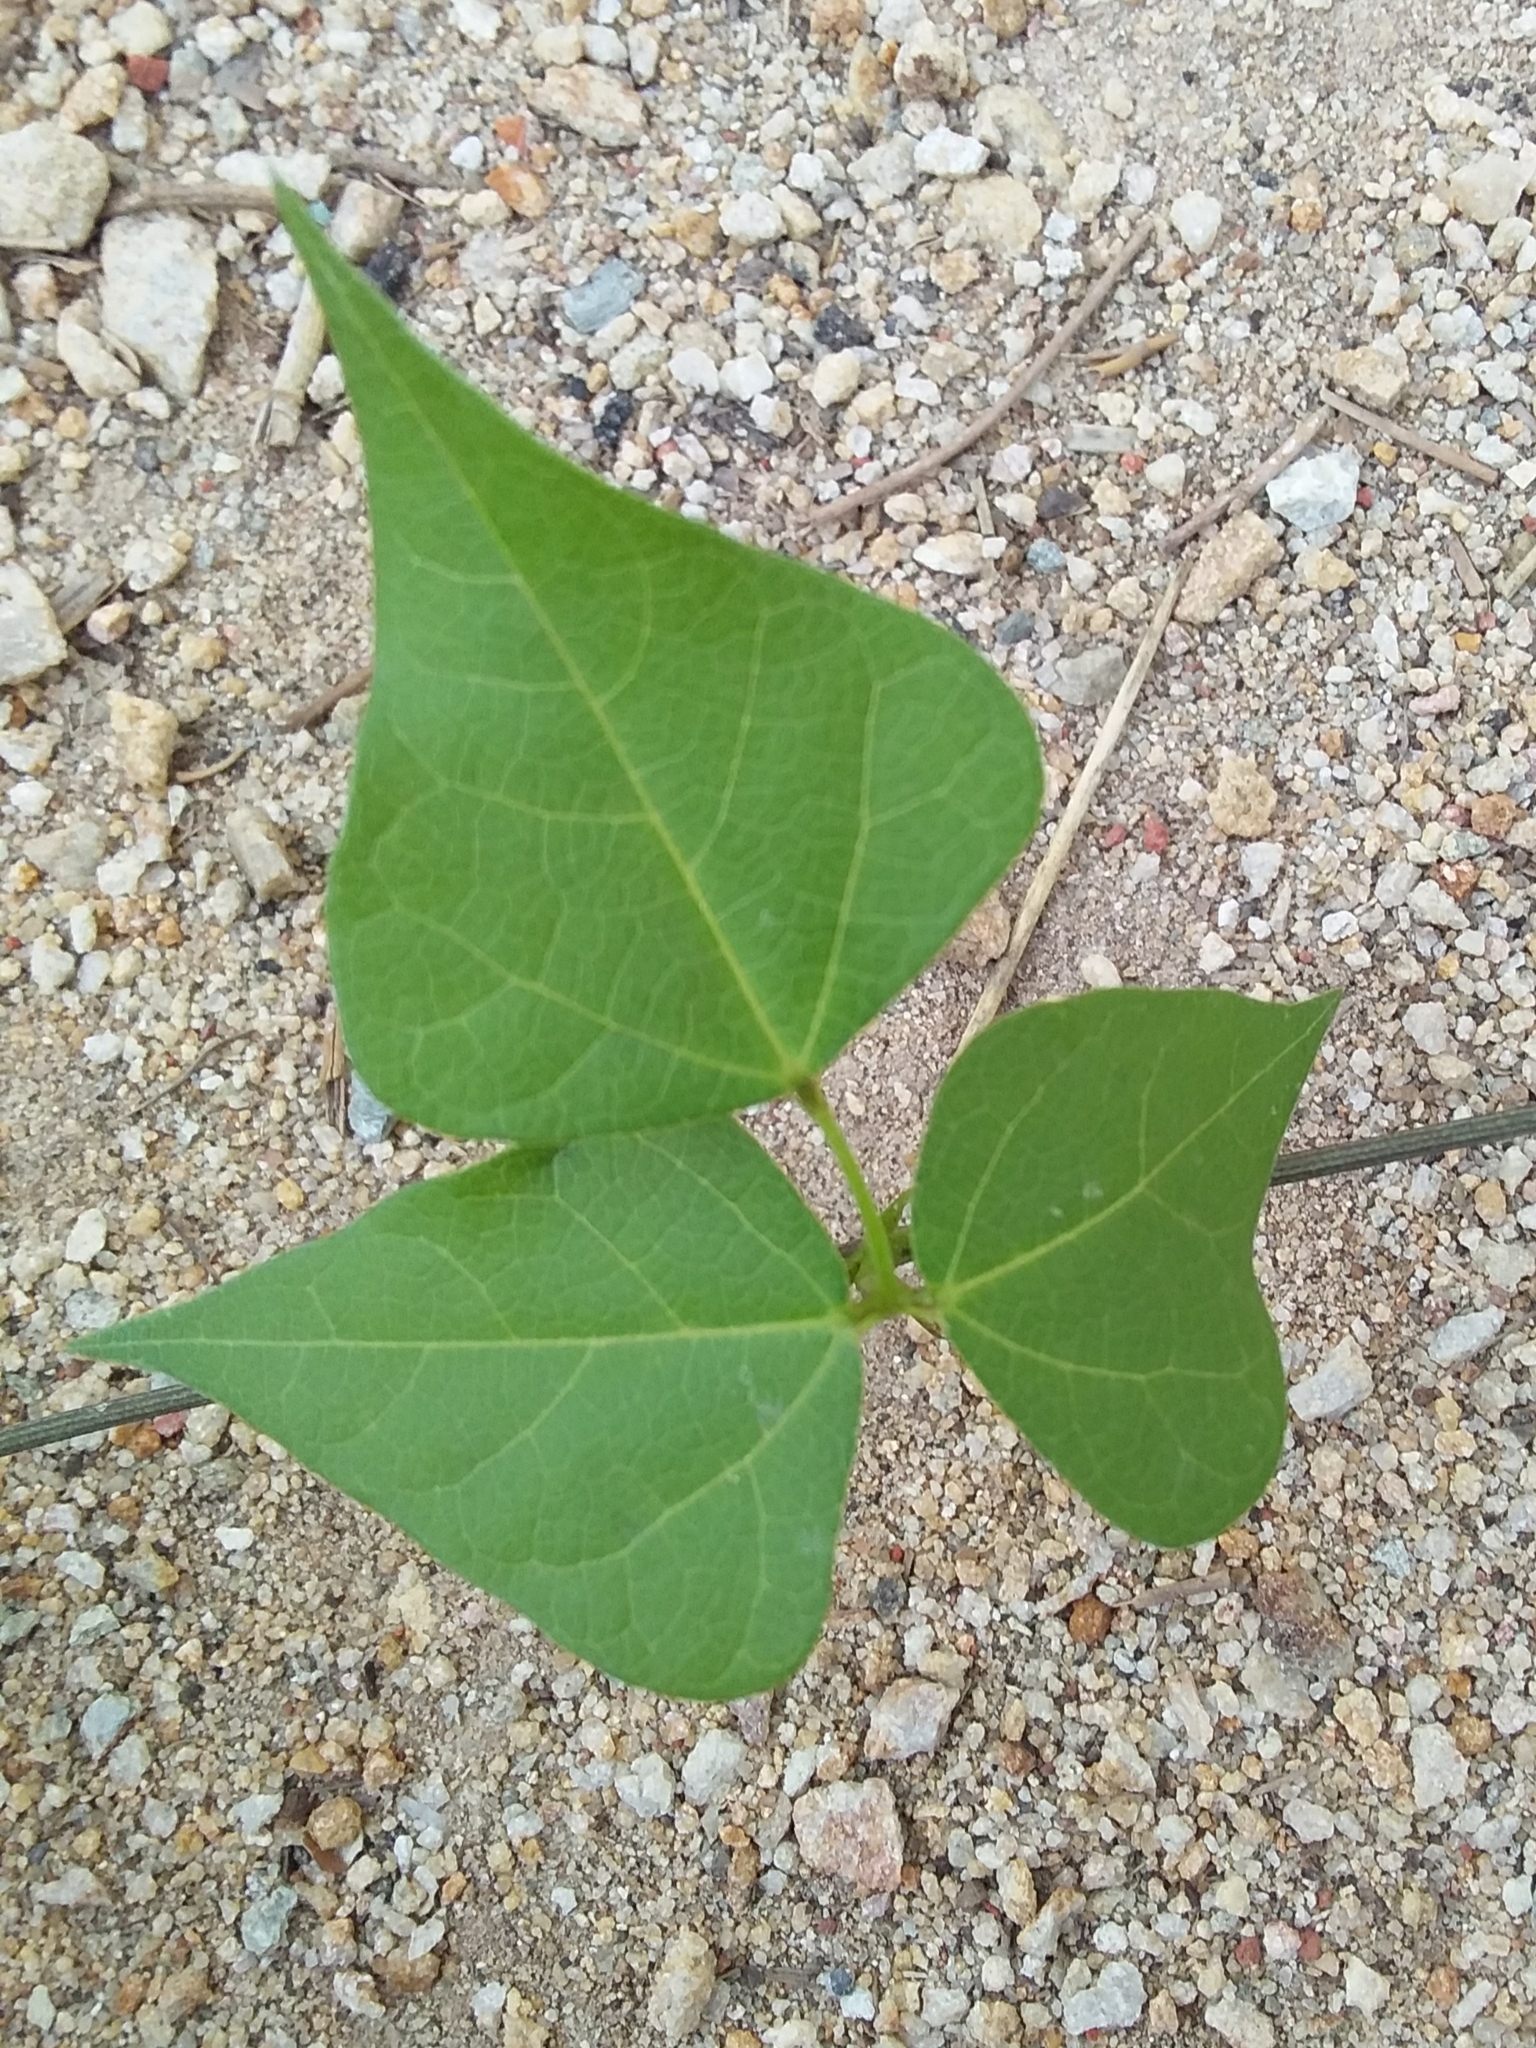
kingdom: Plantae
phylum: Tracheophyta
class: Magnoliopsida
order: Fabales
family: Fabaceae
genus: Dipogon
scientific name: Dipogon lignosus
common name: Okie bean
